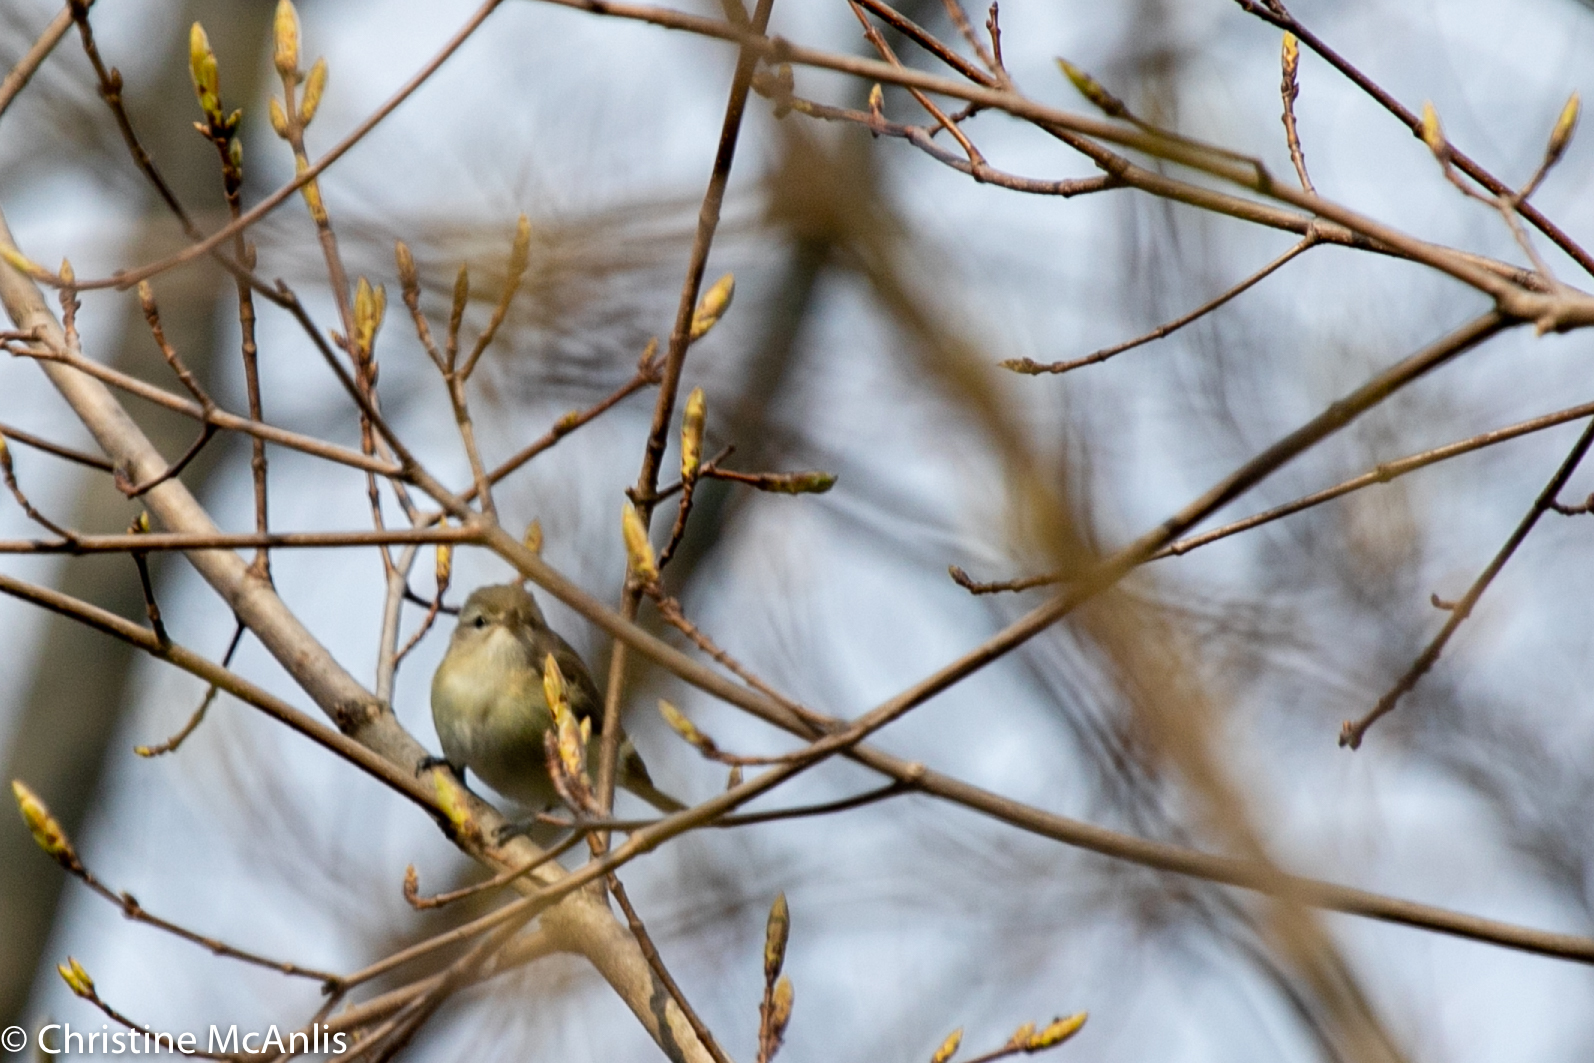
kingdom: Animalia
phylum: Chordata
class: Aves
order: Passeriformes
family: Vireonidae
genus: Vireo
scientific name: Vireo gilvus
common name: Warbling vireo
